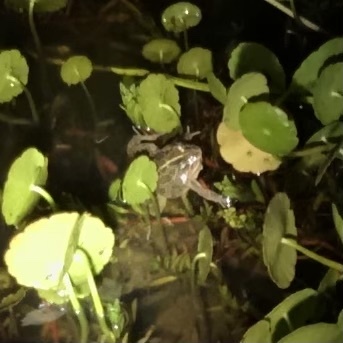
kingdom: Animalia
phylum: Chordata
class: Amphibia
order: Anura
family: Limnodynastidae
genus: Limnodynastes
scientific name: Limnodynastes tasmaniensis
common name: Spotted marsh frog
